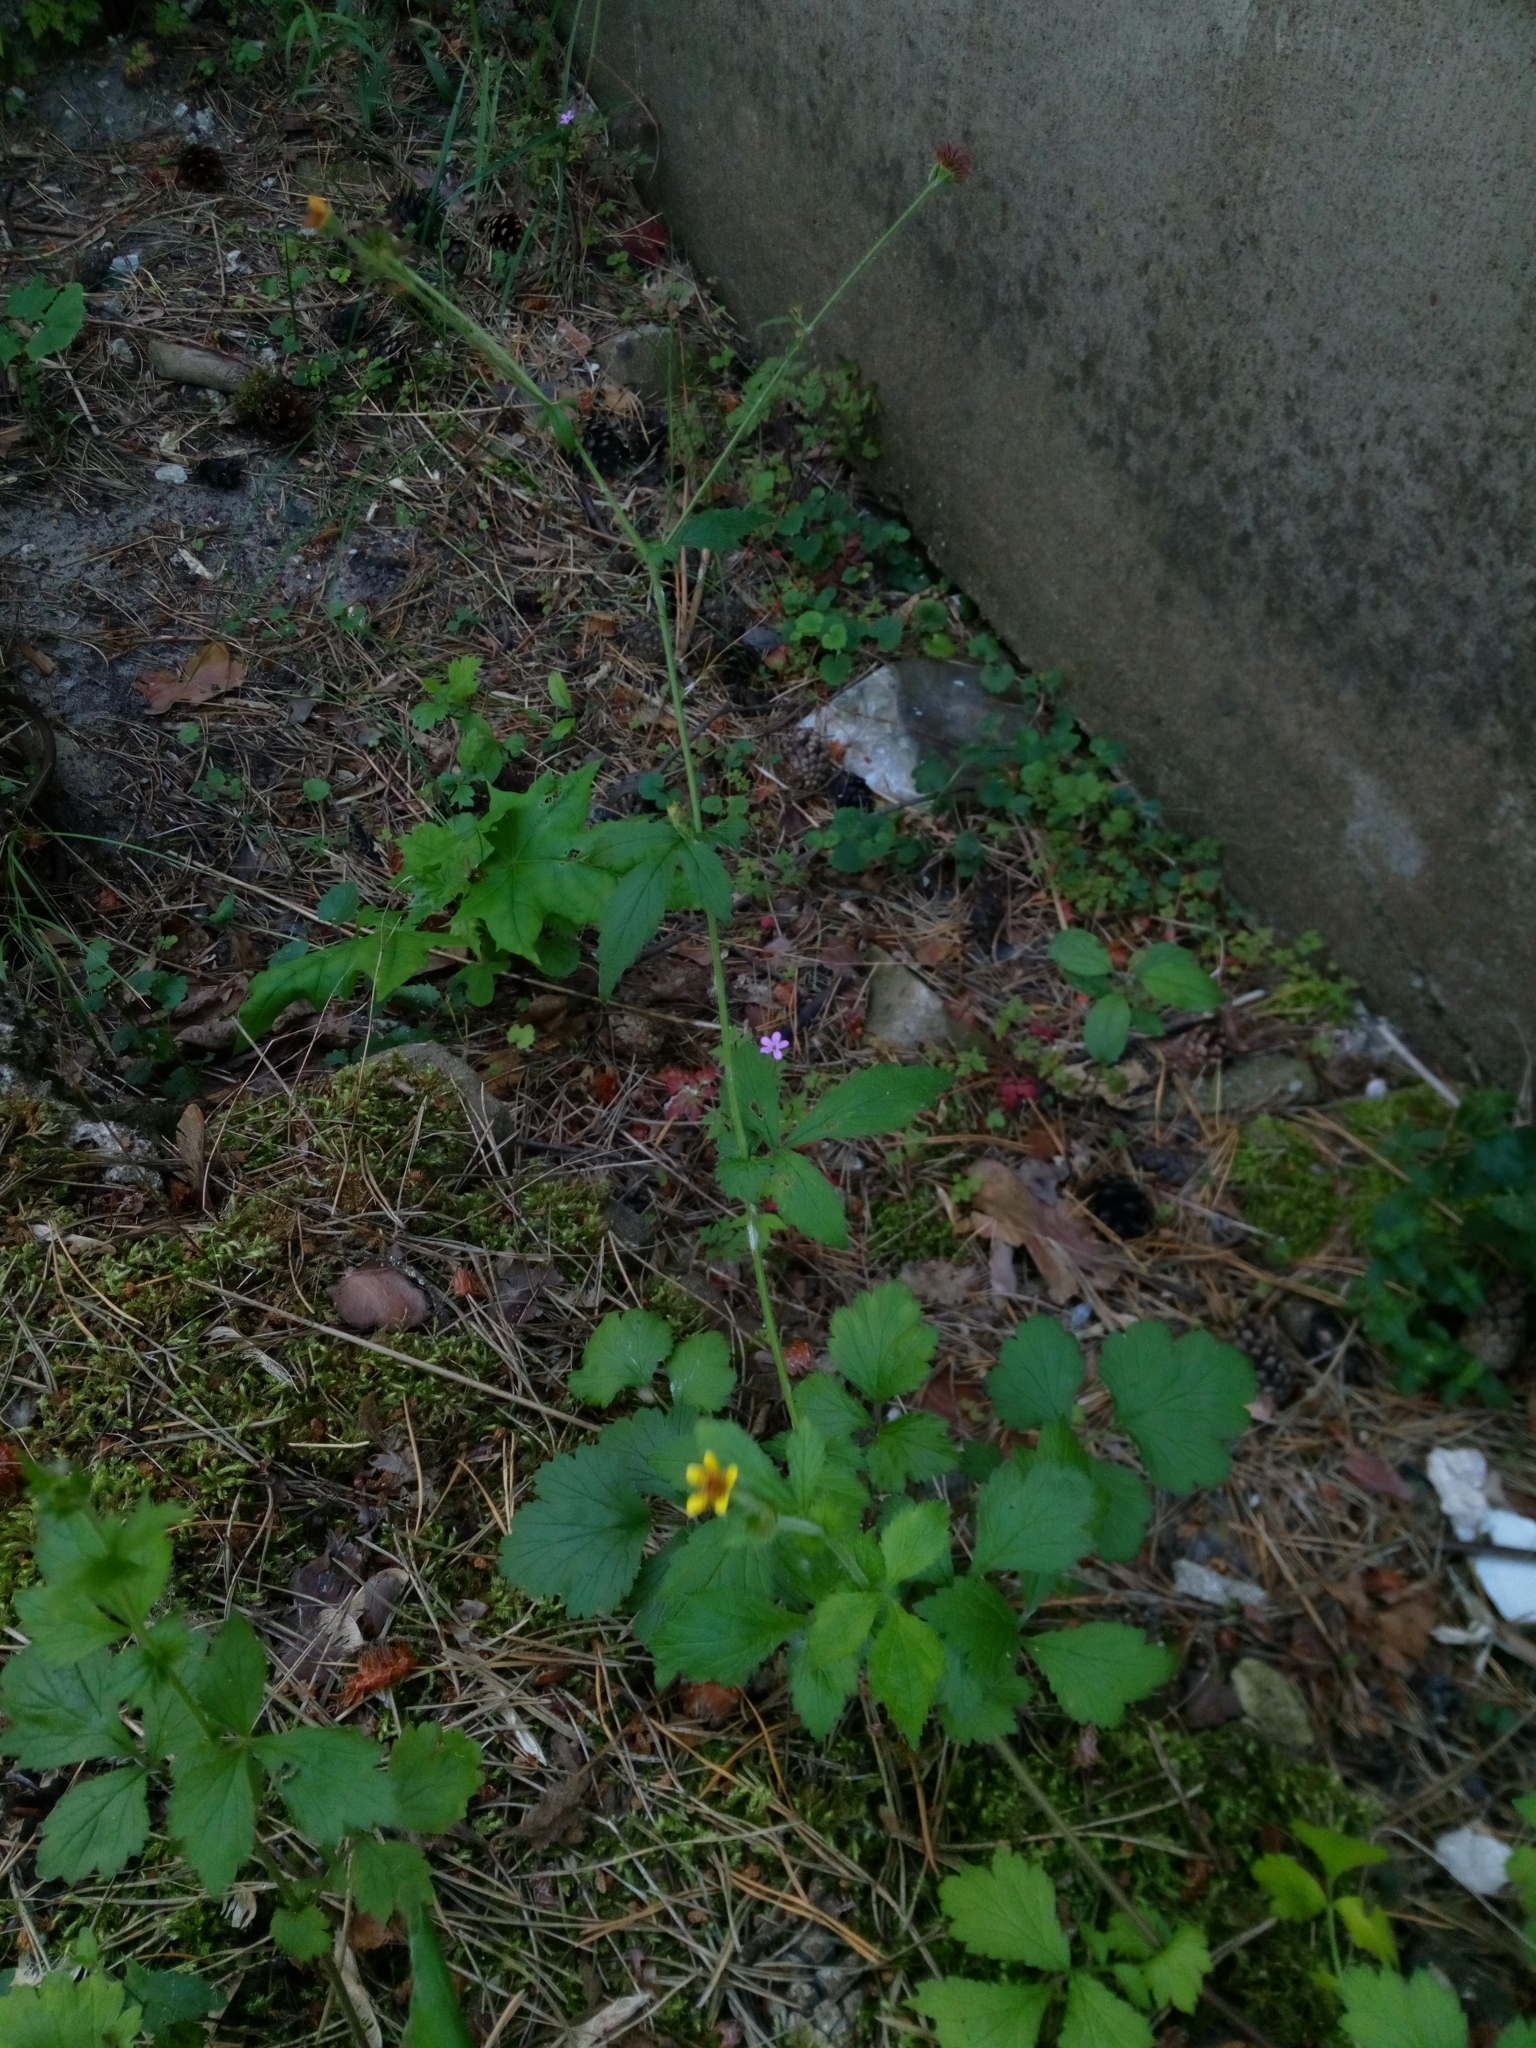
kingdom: Plantae
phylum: Tracheophyta
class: Magnoliopsida
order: Rosales
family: Rosaceae
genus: Geum
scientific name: Geum urbanum
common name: Wood avens
